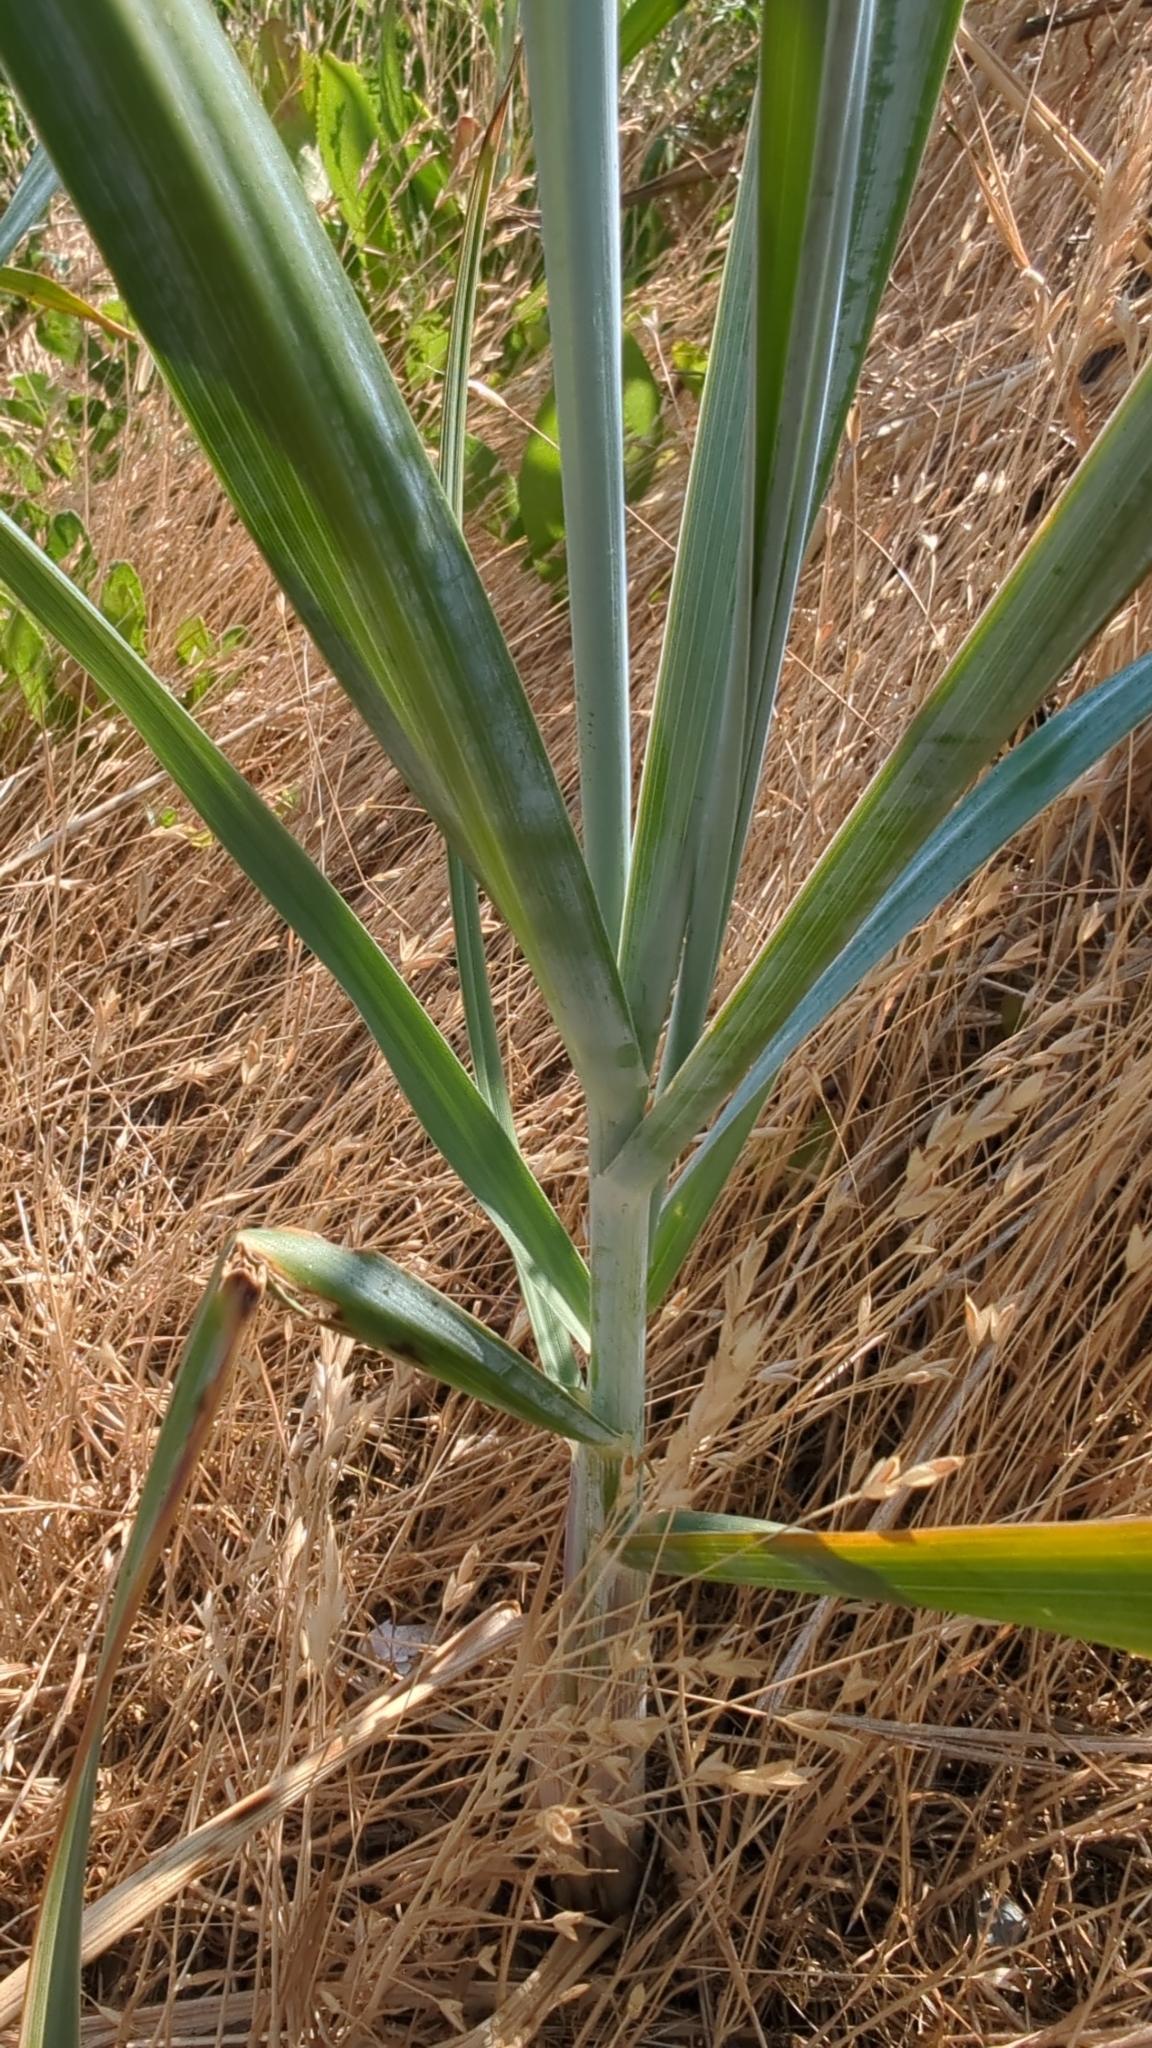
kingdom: Plantae
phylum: Tracheophyta
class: Liliopsida
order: Poales
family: Poaceae
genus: Leymus
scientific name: Leymus mollis
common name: American dune grass
